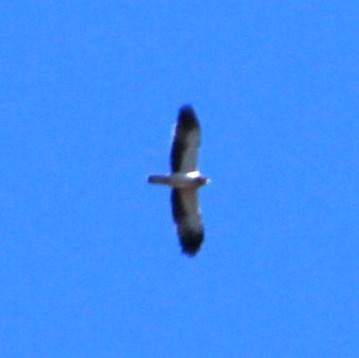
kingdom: Animalia
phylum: Chordata
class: Aves
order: Accipitriformes
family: Accipitridae
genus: Hieraaetus
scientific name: Hieraaetus pennatus
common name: Booted eagle
